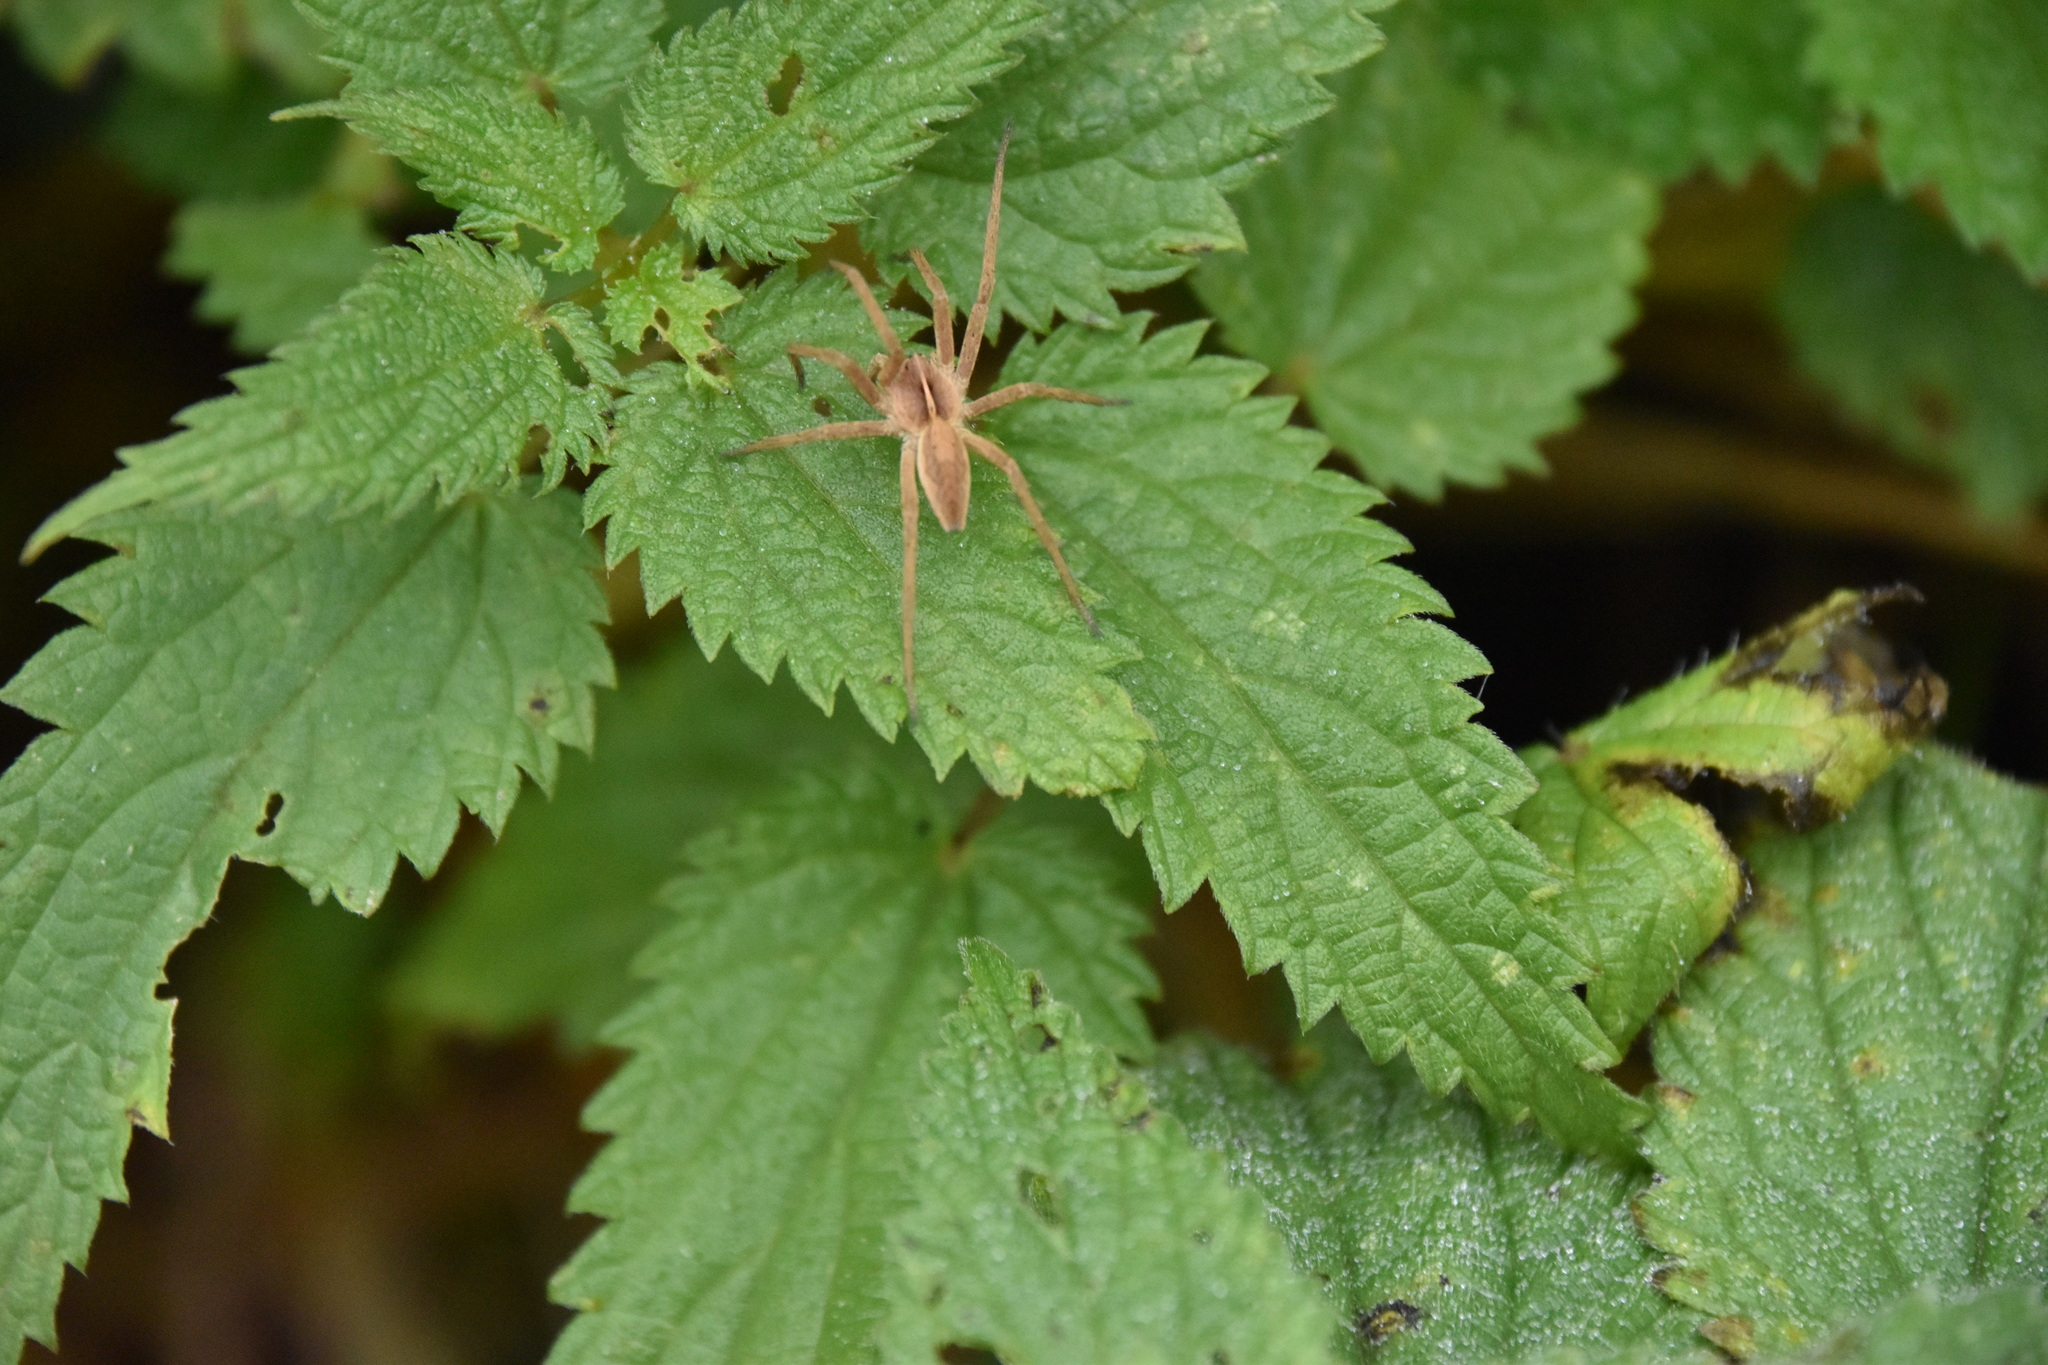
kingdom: Animalia
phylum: Arthropoda
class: Arachnida
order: Araneae
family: Pisauridae
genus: Pisaura
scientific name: Pisaura mirabilis
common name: Tent spider
